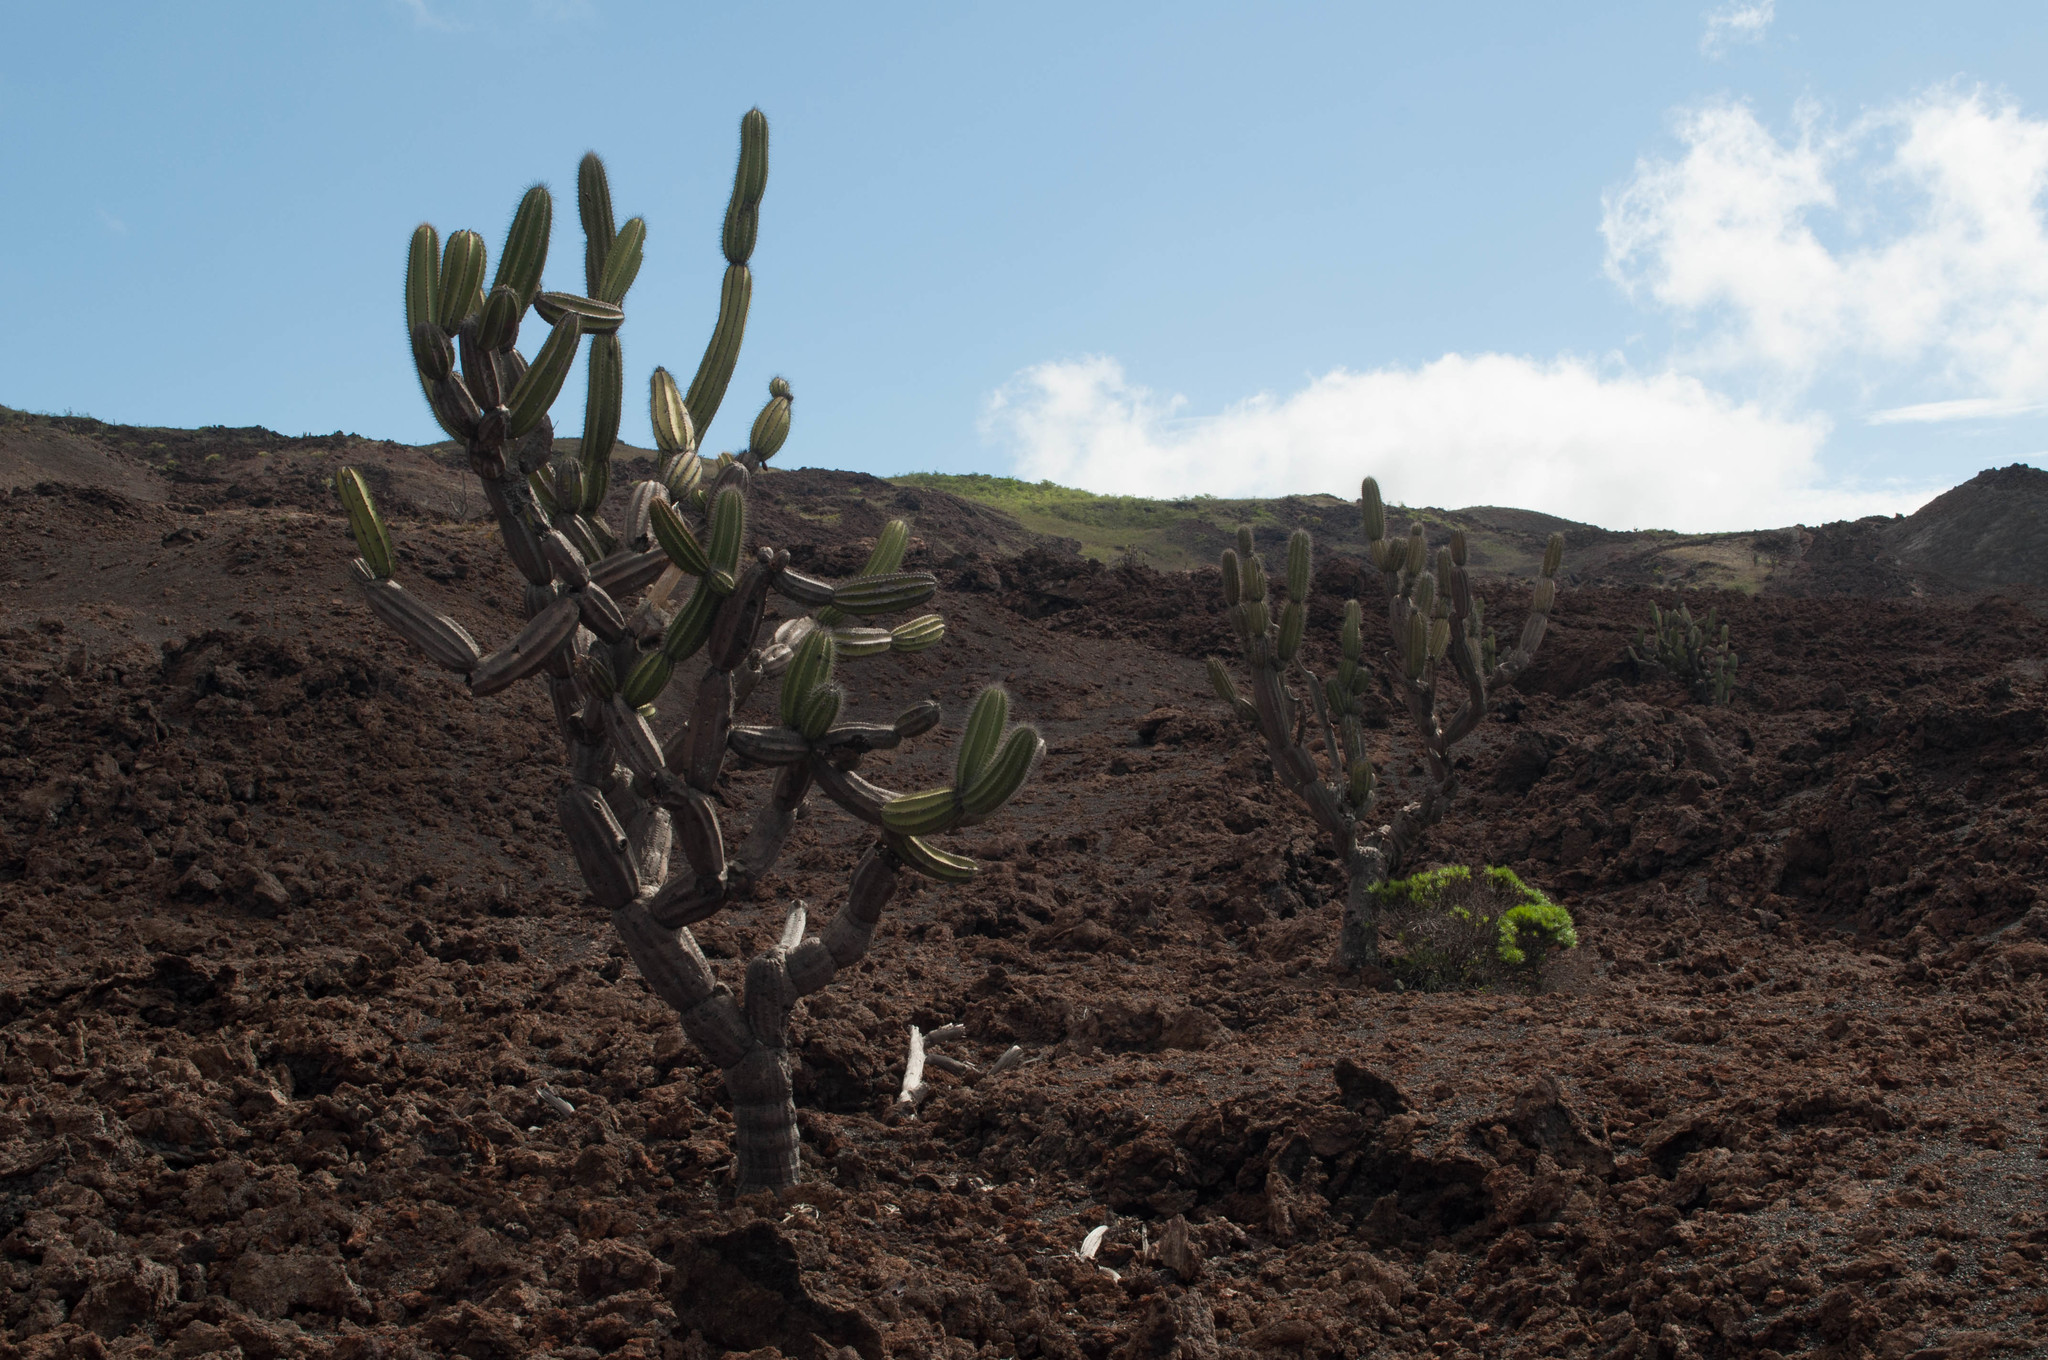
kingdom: Plantae
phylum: Tracheophyta
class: Magnoliopsida
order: Caryophyllales
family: Cactaceae
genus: Jasminocereus
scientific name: Jasminocereus thouarsii
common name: Candelabra cactus
